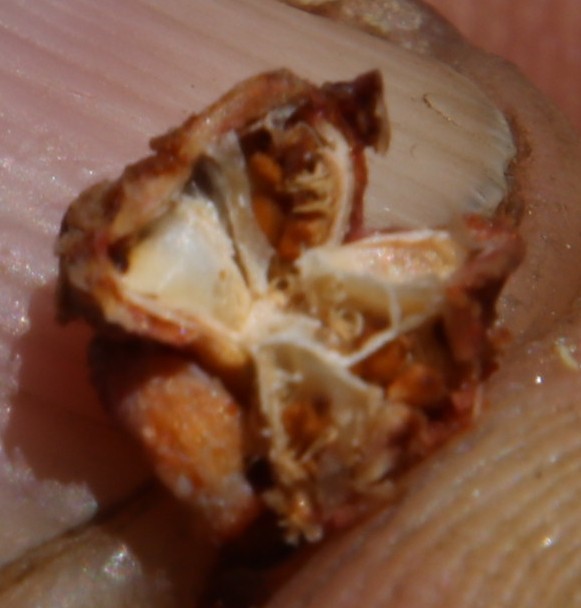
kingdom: Plantae
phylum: Tracheophyta
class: Magnoliopsida
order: Caryophyllales
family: Aizoaceae
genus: Esterhuysenia
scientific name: Esterhuysenia alpina
